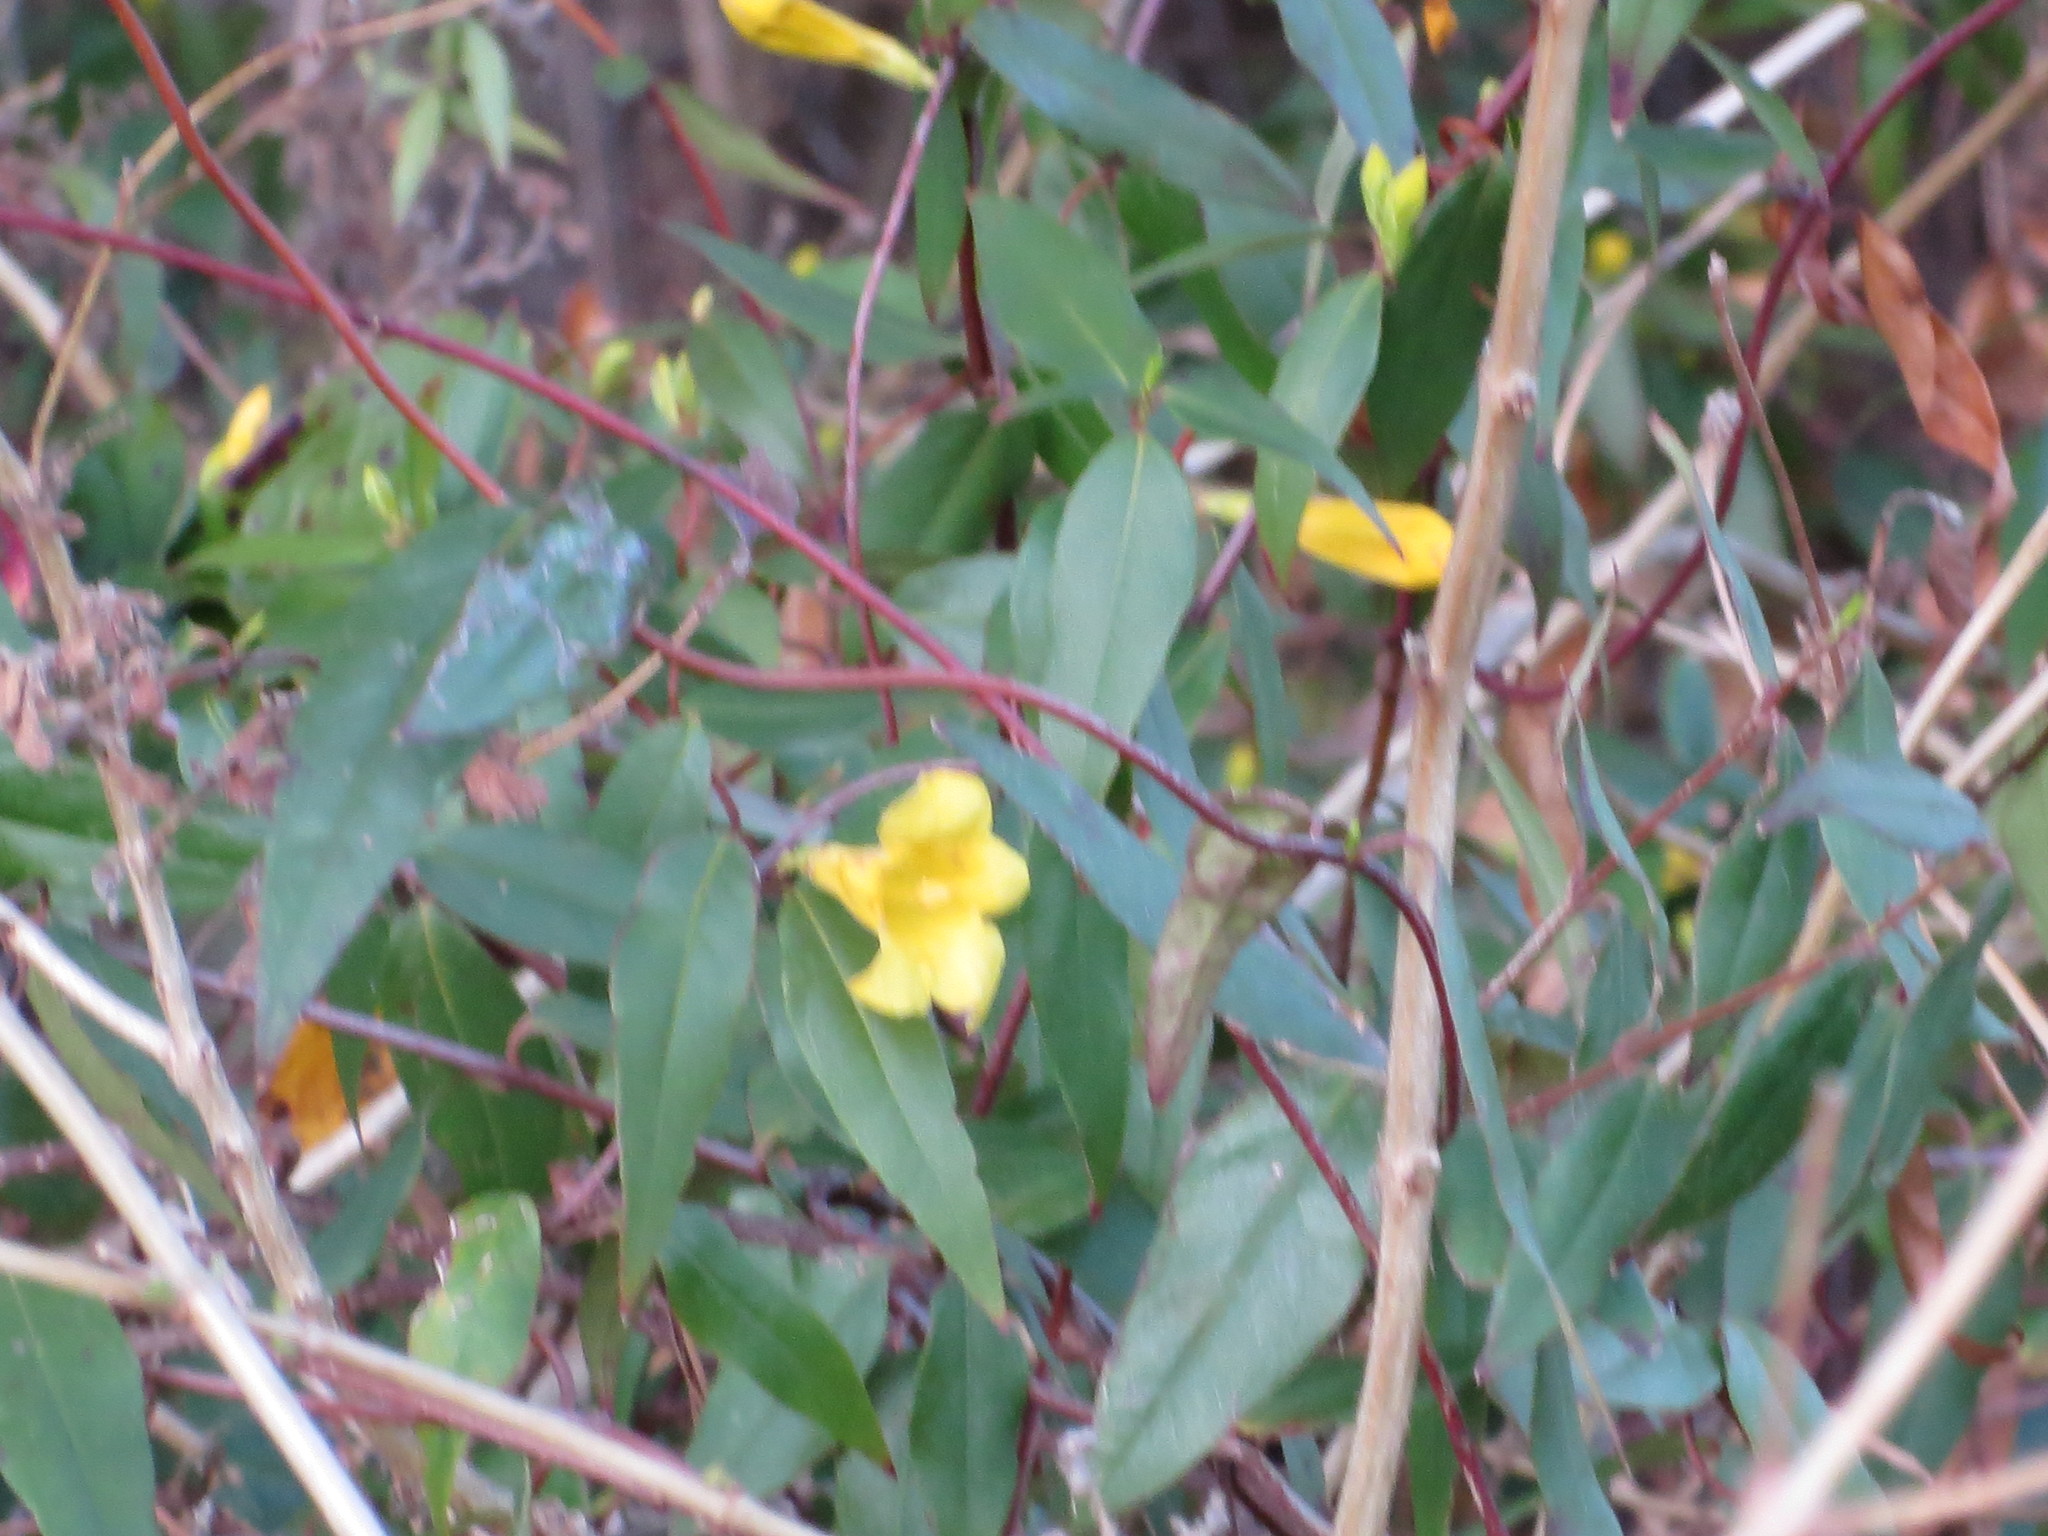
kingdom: Plantae
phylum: Tracheophyta
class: Magnoliopsida
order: Gentianales
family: Gelsemiaceae
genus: Gelsemium
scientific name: Gelsemium sempervirens
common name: Carolina-jasmine
